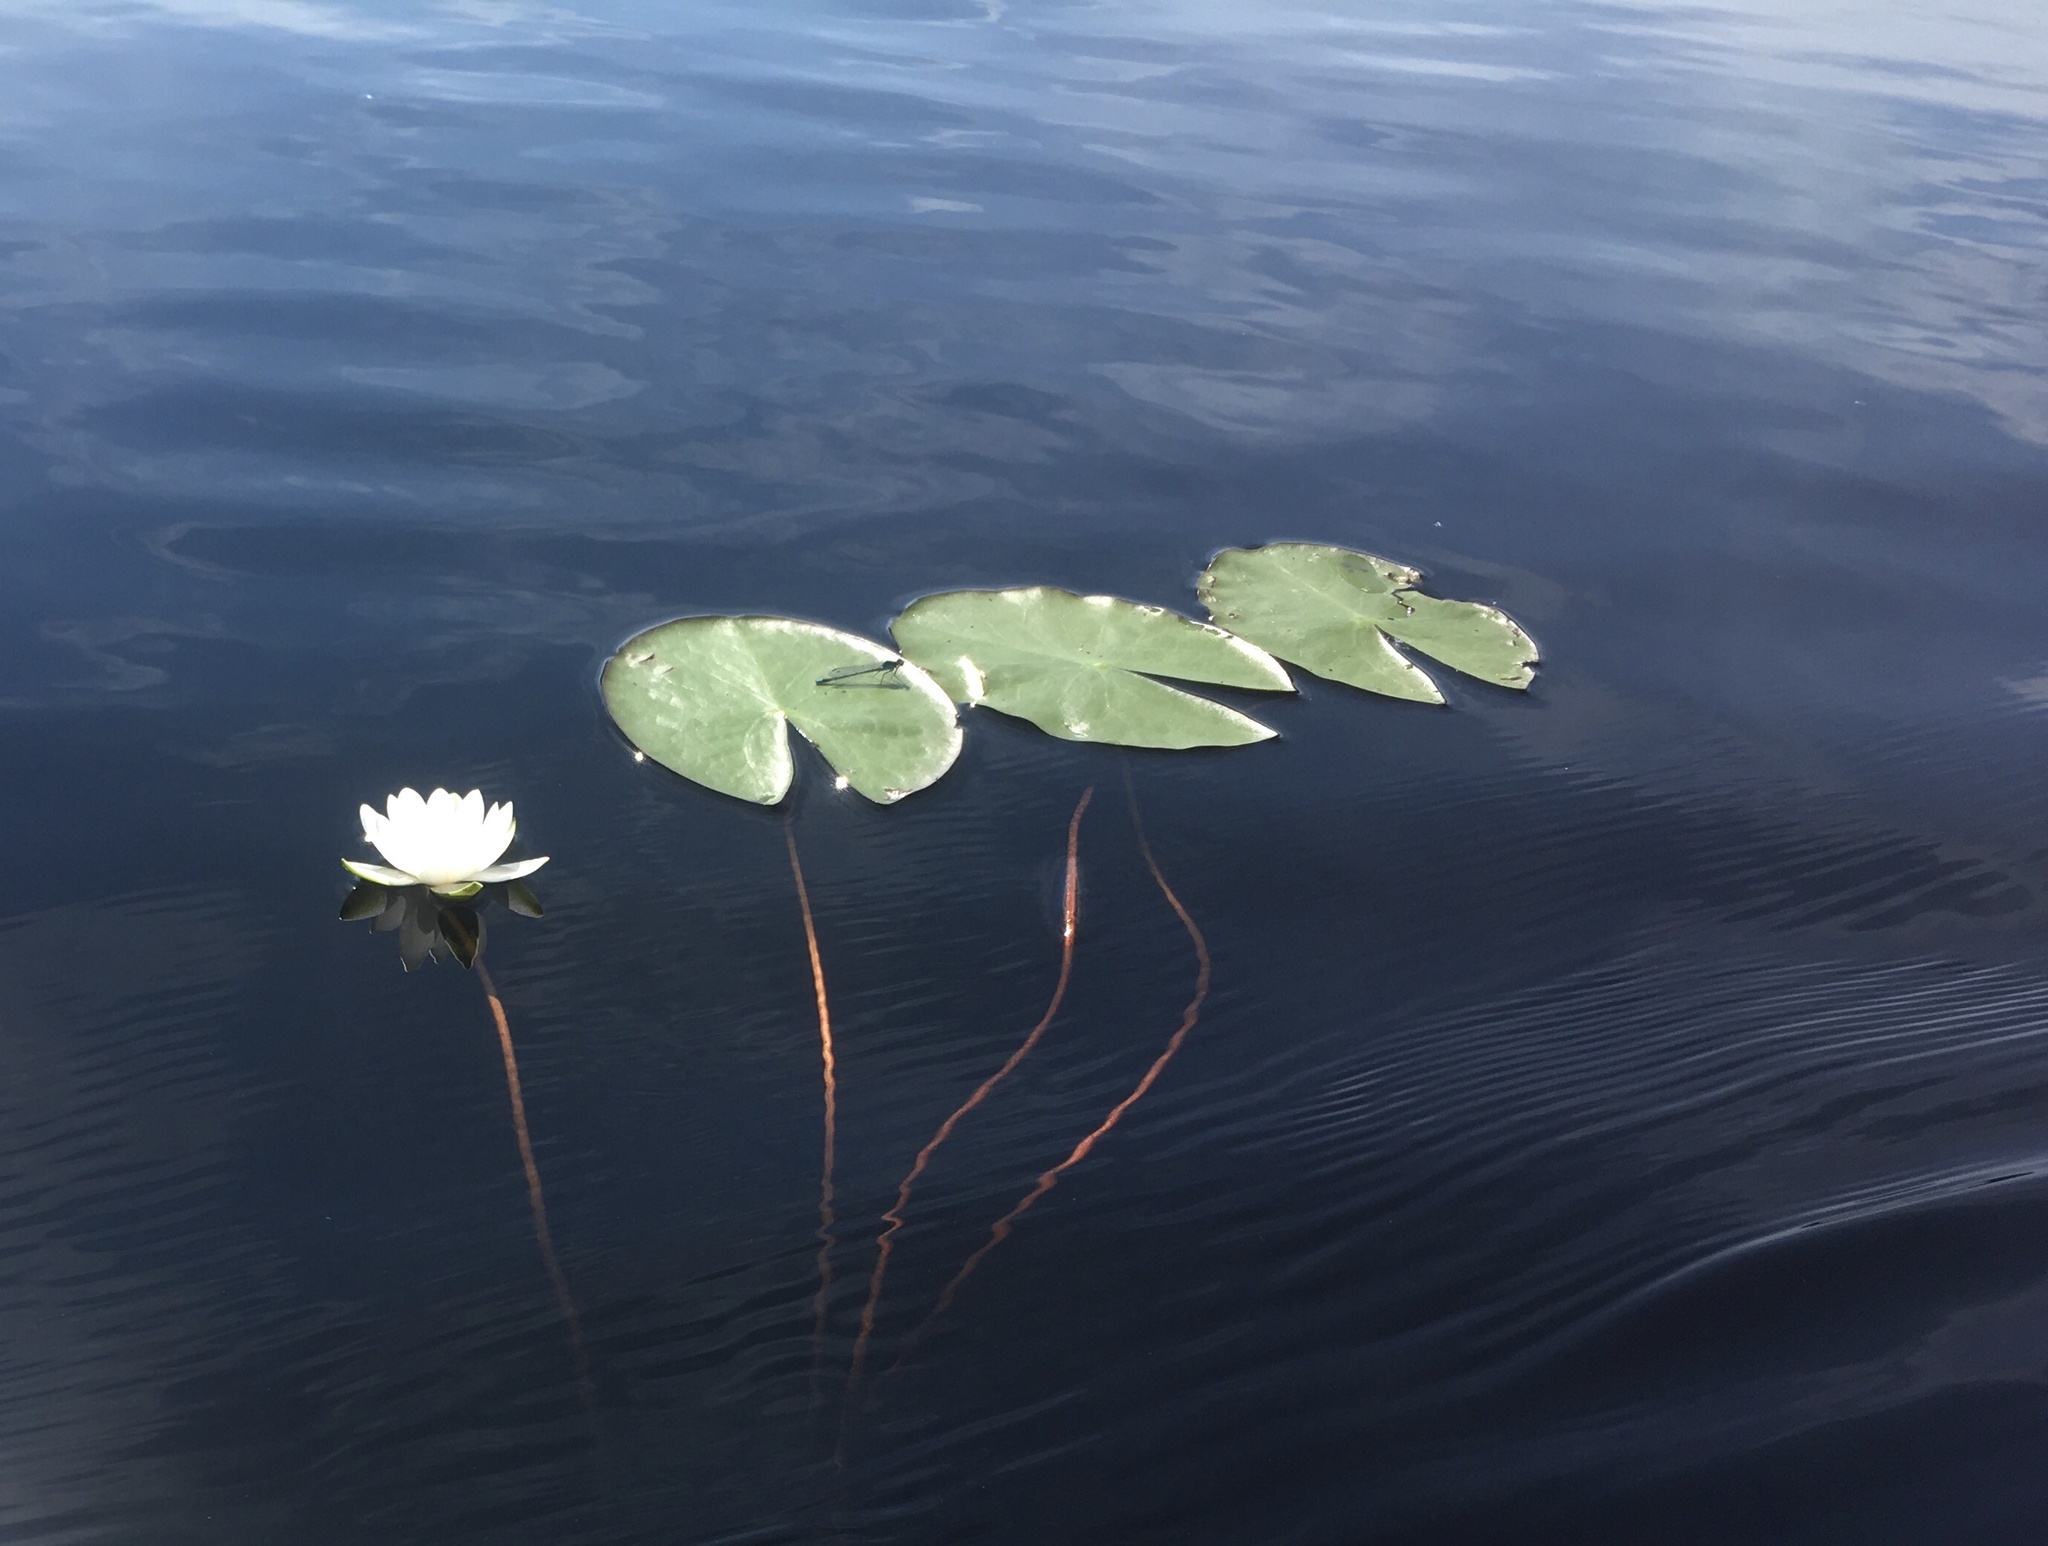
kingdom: Plantae
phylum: Tracheophyta
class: Magnoliopsida
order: Nymphaeales
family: Nymphaeaceae
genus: Nymphaea
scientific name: Nymphaea candida
